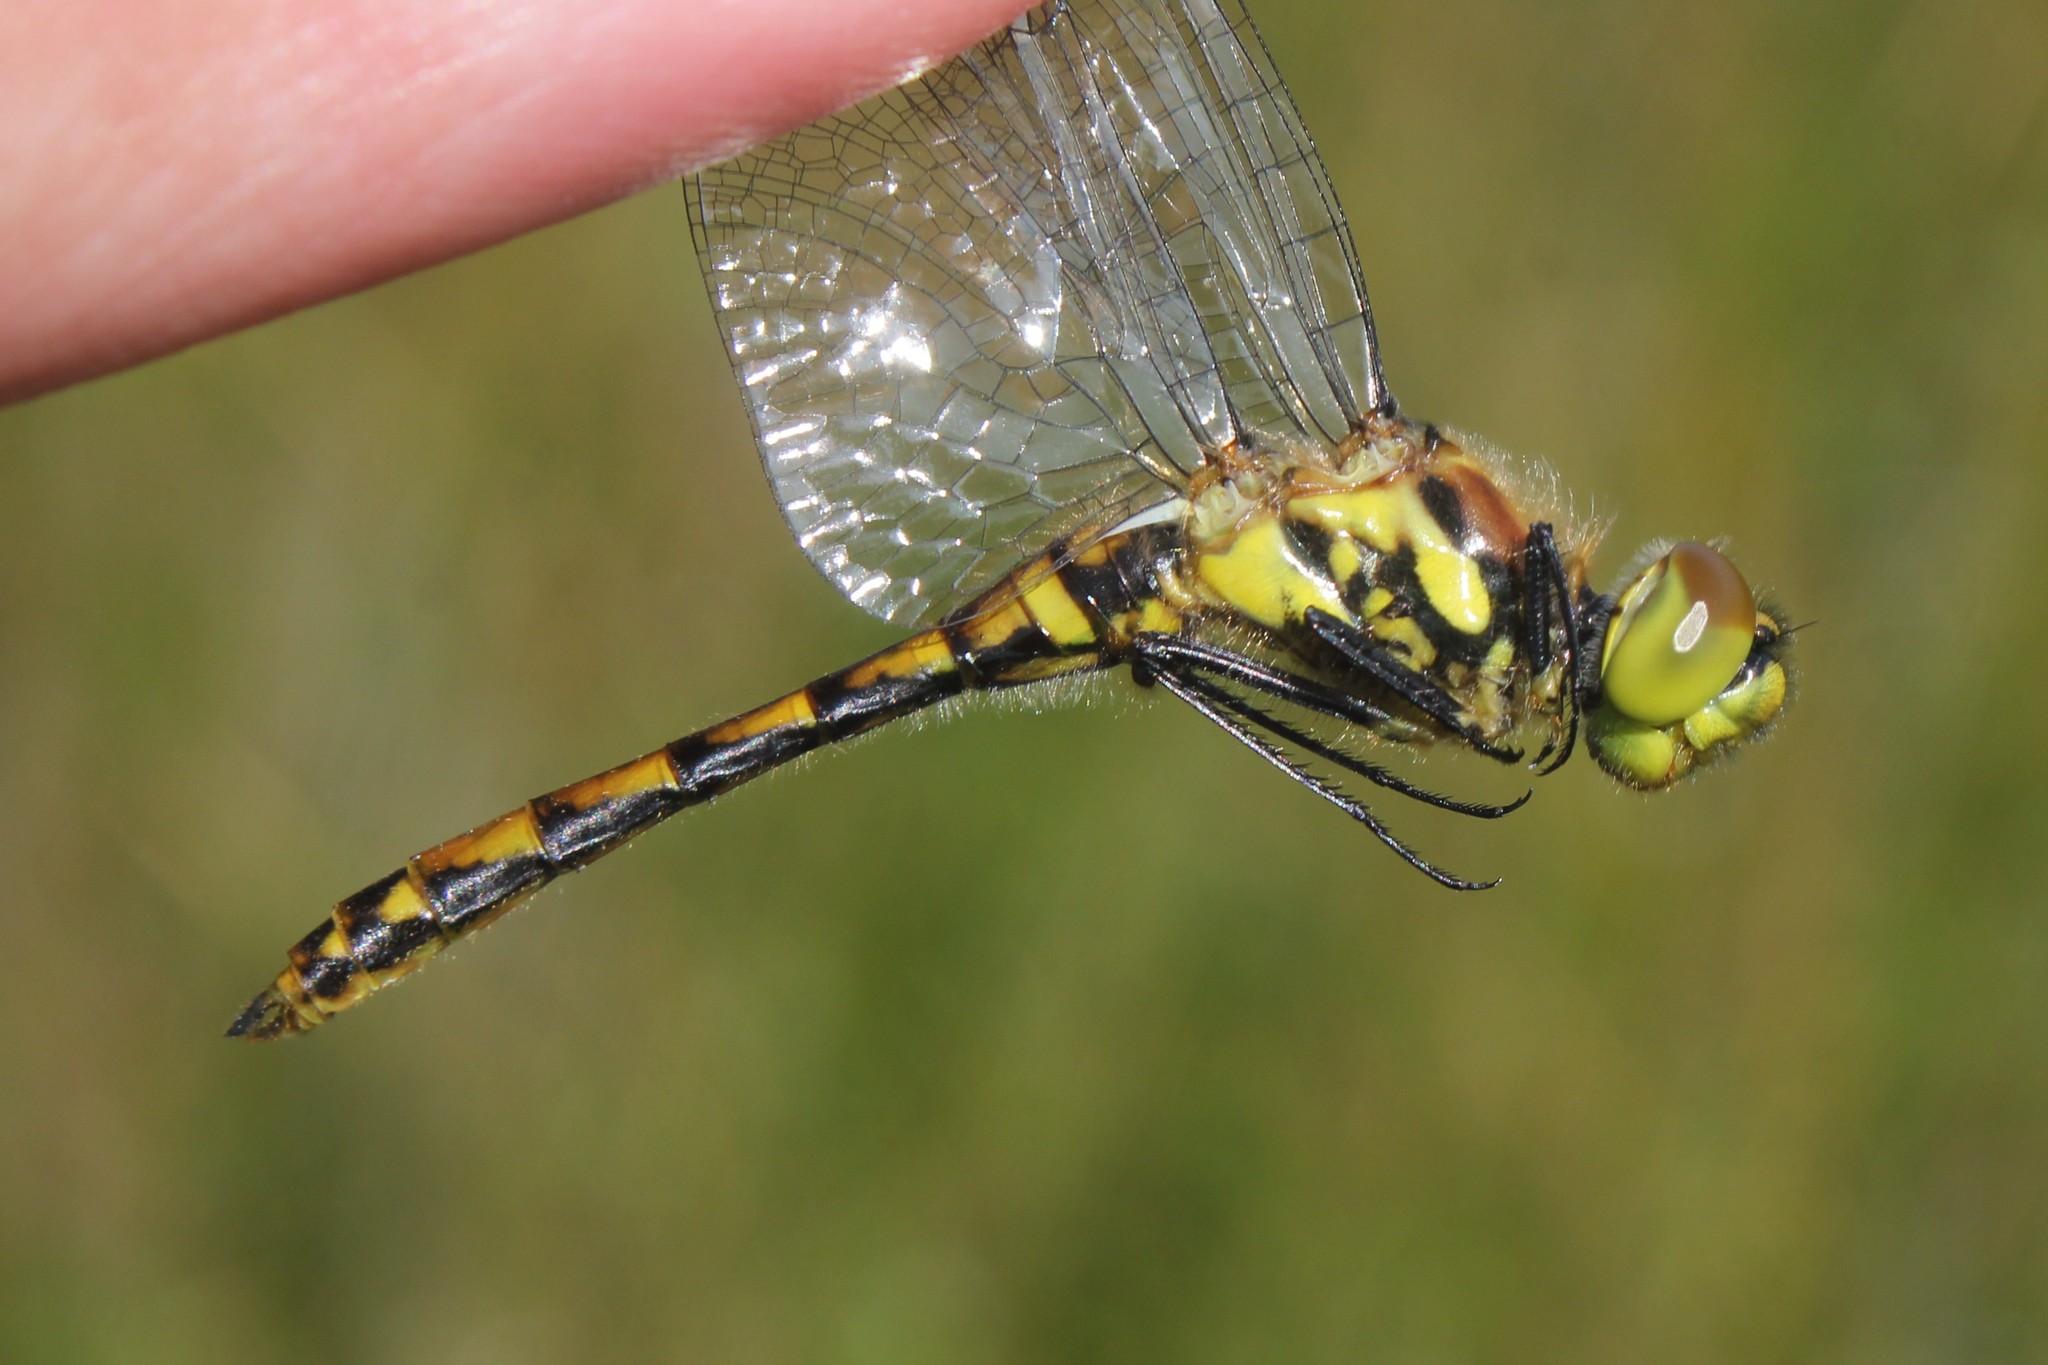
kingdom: Animalia
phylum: Arthropoda
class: Insecta
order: Odonata
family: Libellulidae
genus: Sympetrum
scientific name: Sympetrum danae
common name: Black darter
